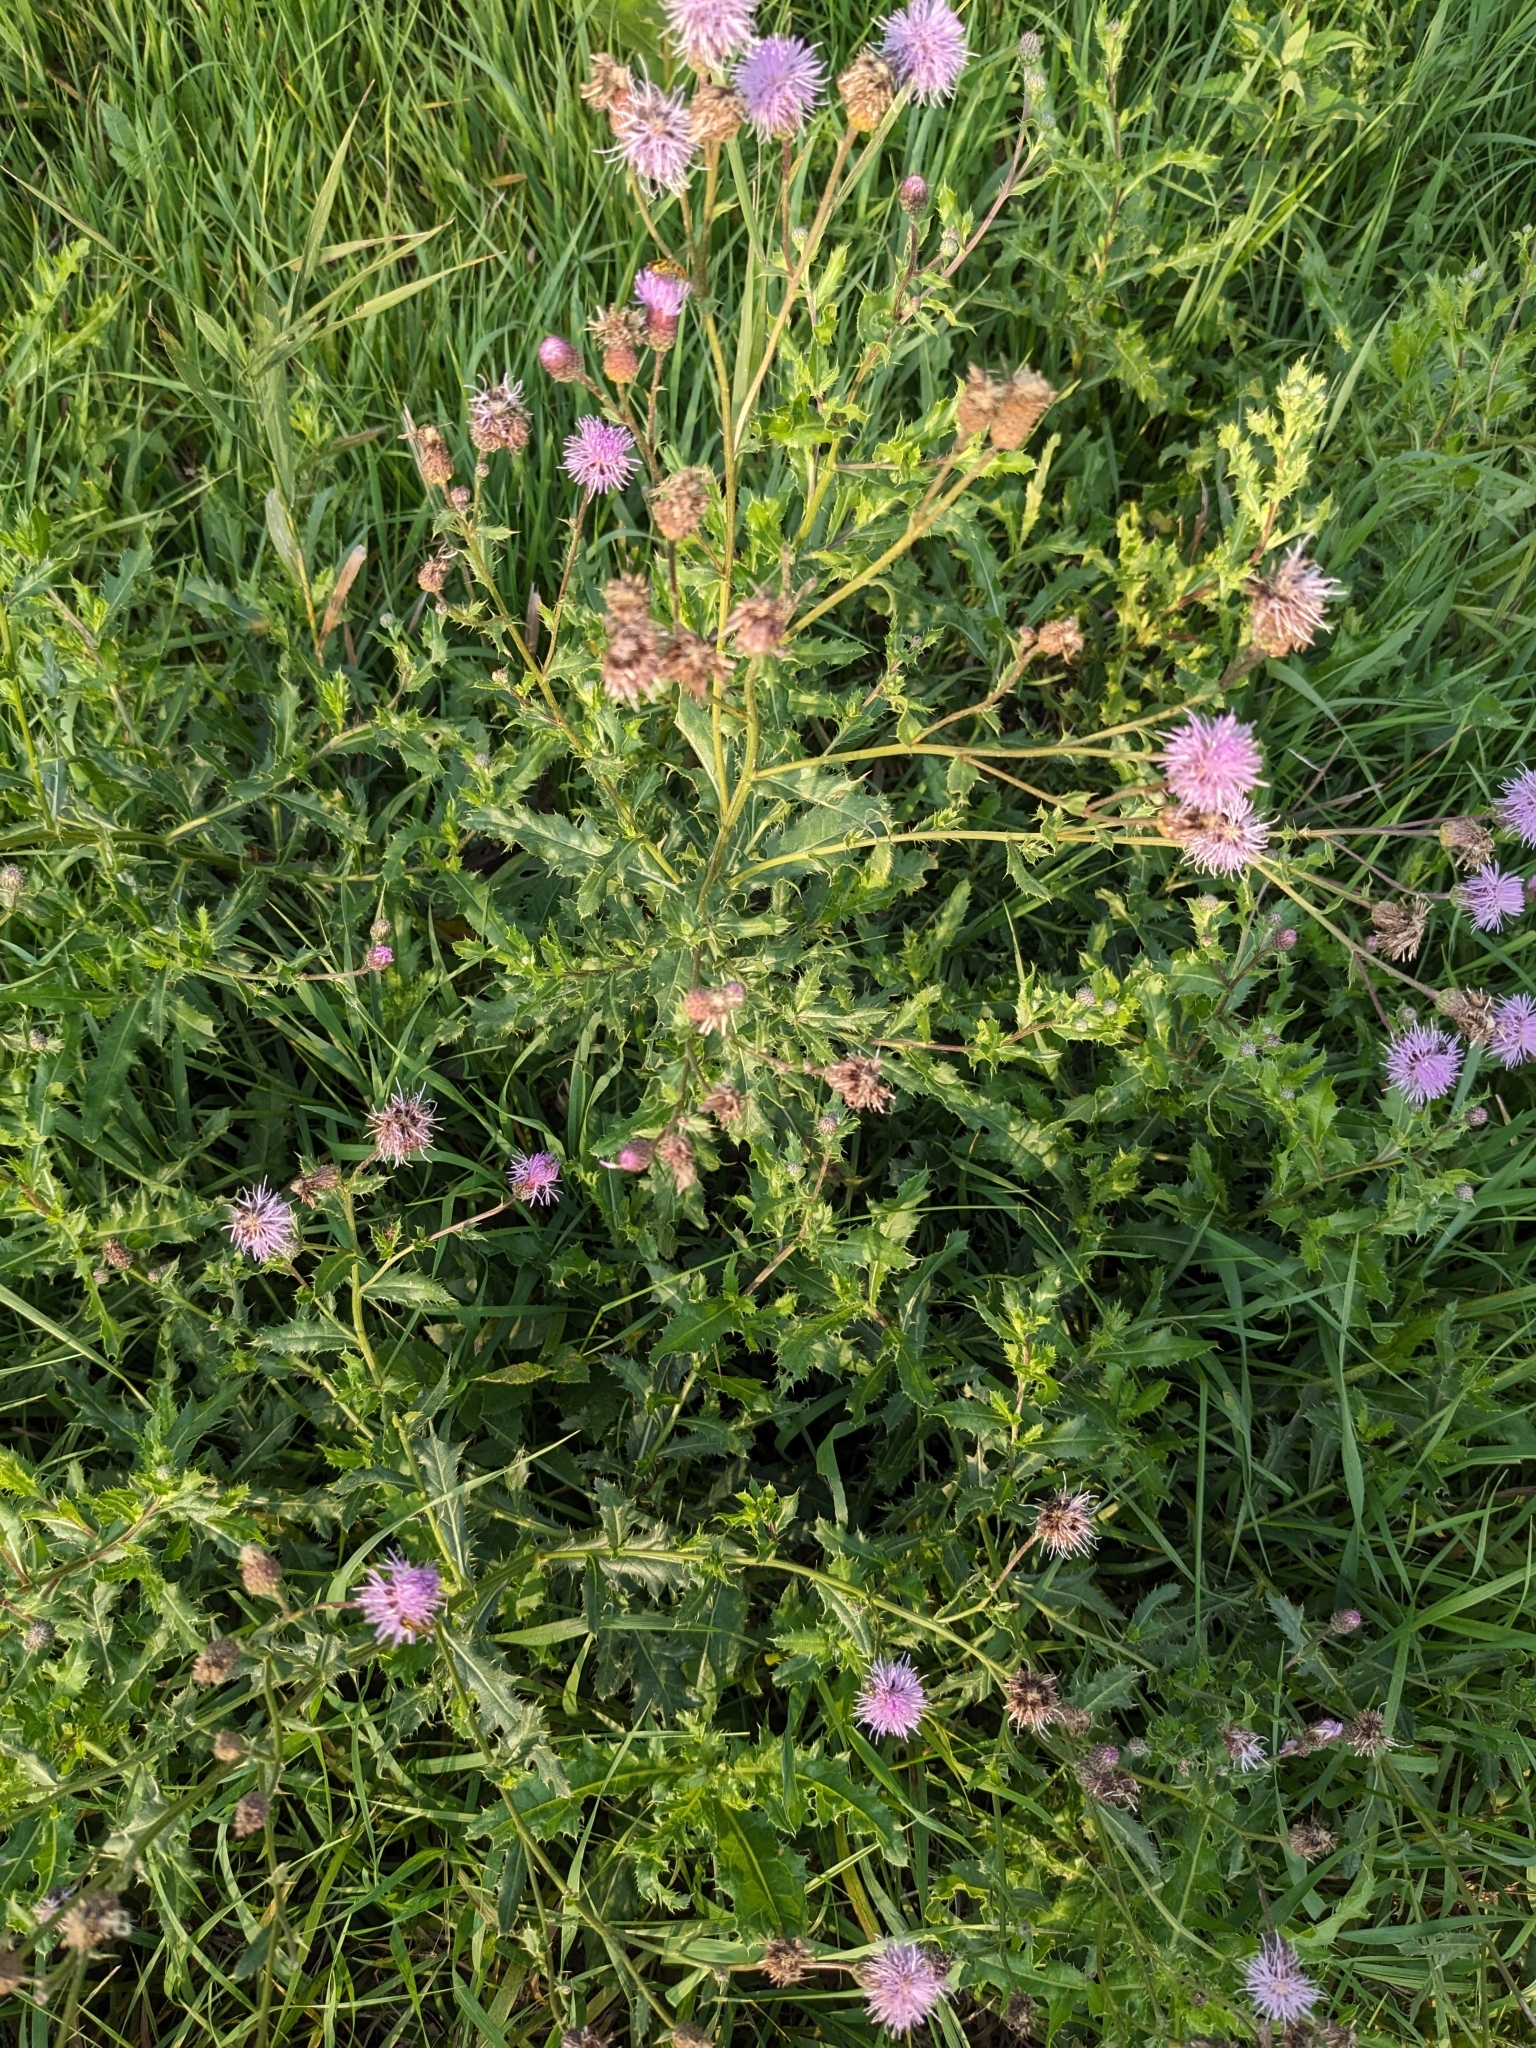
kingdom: Plantae
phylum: Tracheophyta
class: Magnoliopsida
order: Asterales
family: Asteraceae
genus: Cirsium
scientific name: Cirsium arvense
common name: Creeping thistle
